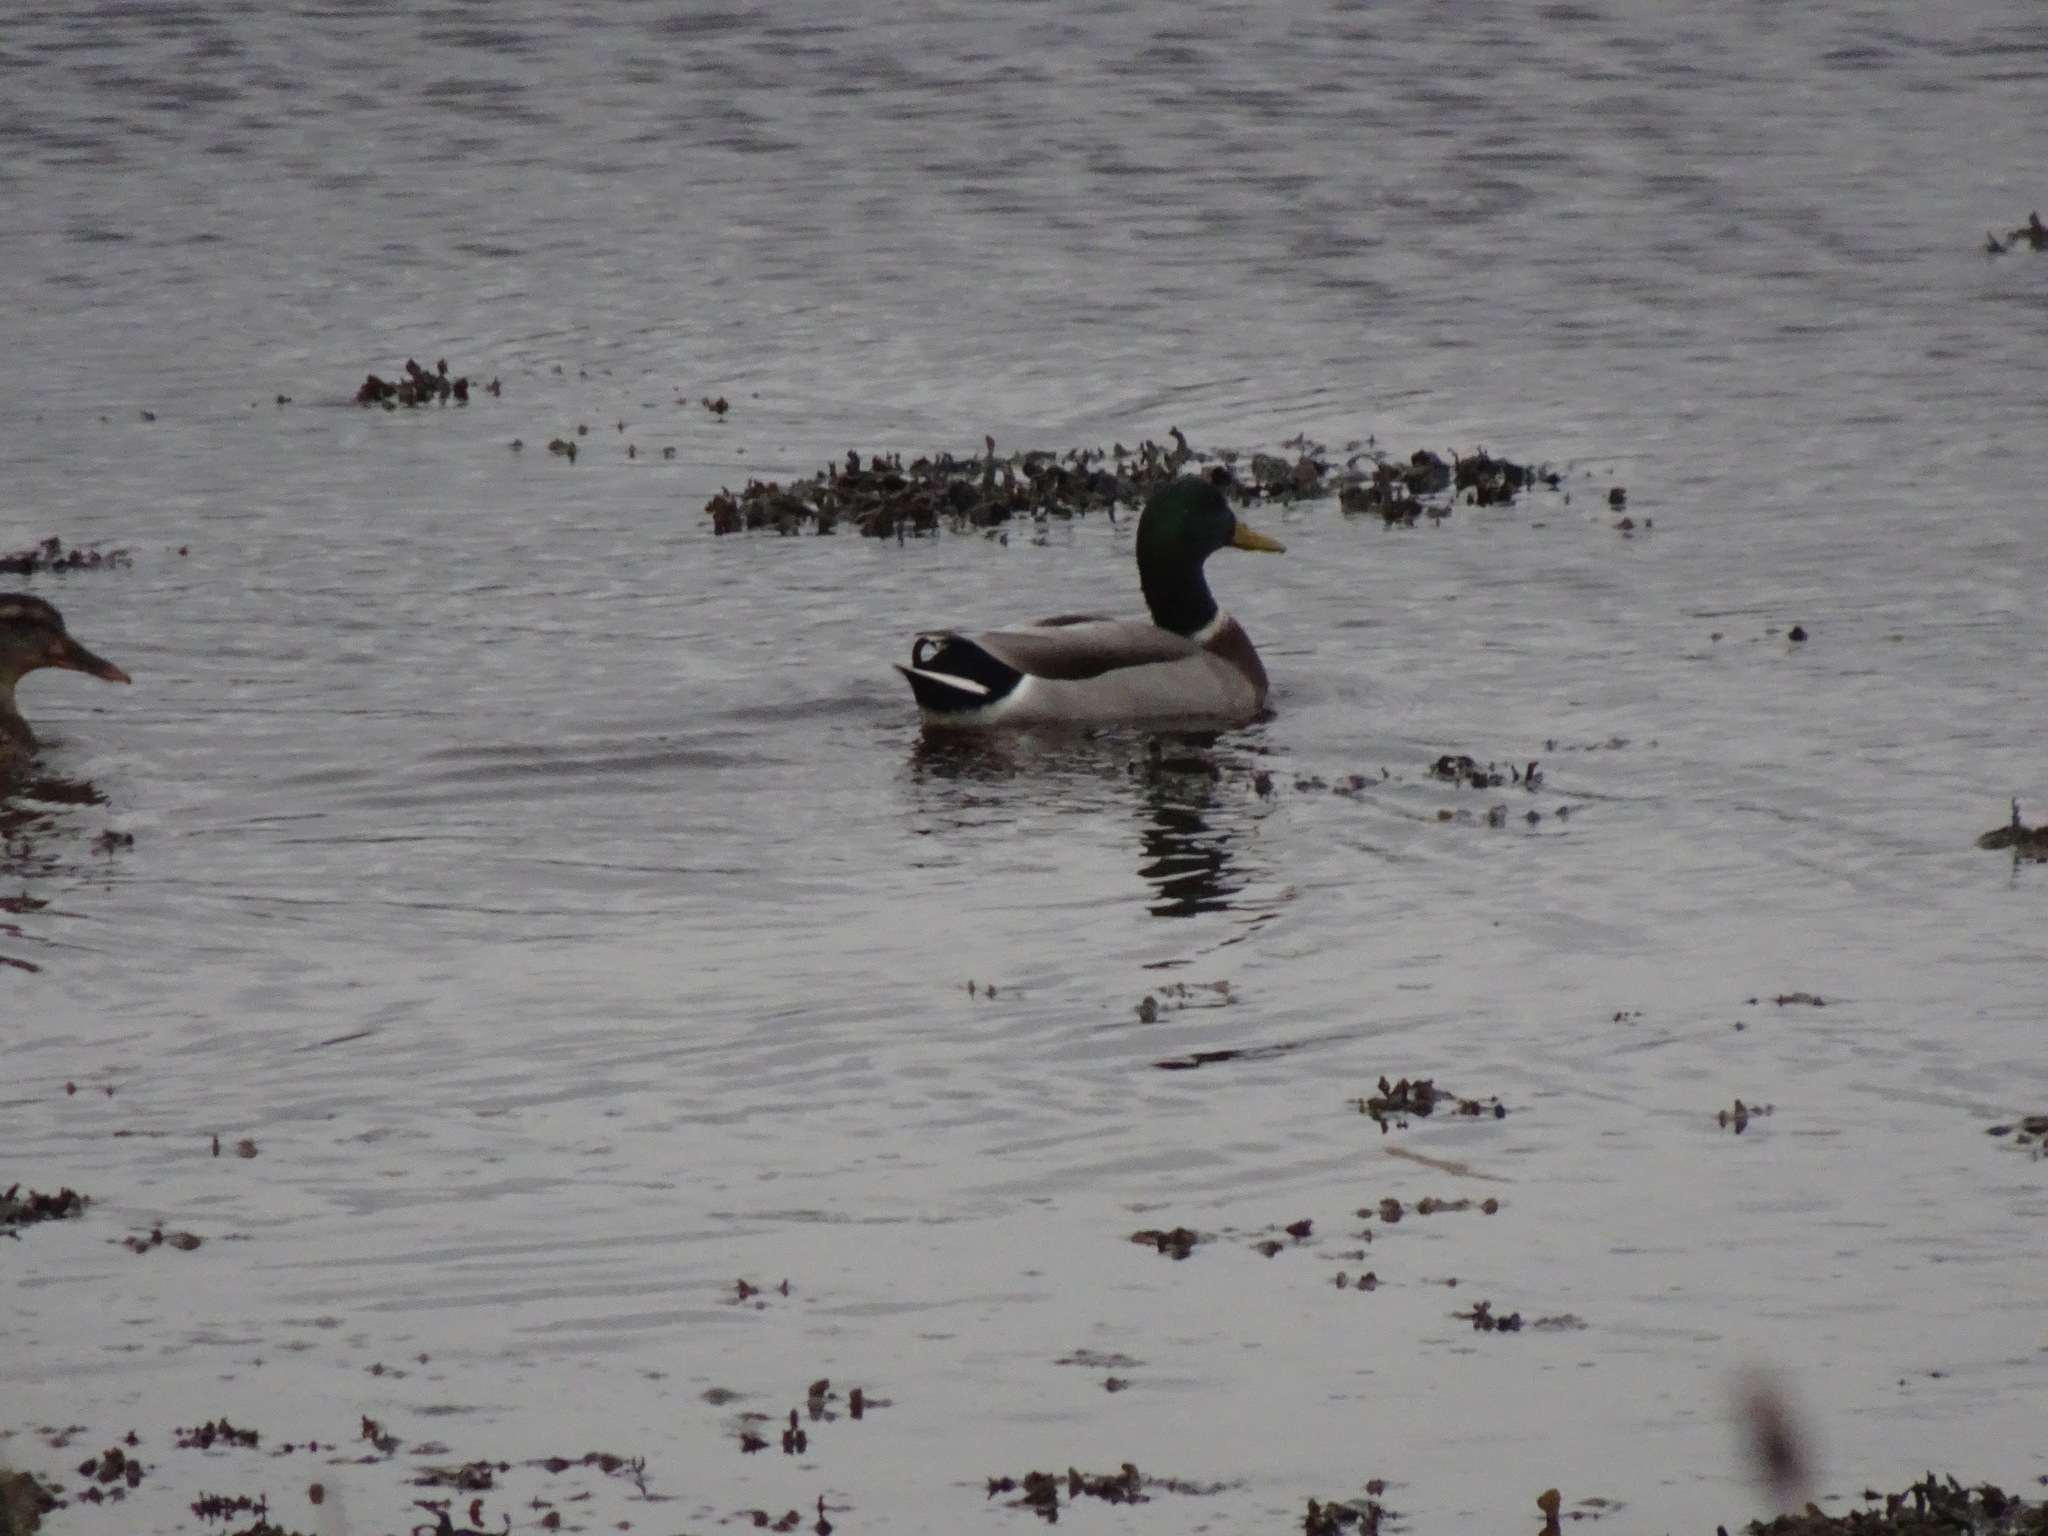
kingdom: Animalia
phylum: Chordata
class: Aves
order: Anseriformes
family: Anatidae
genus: Anas
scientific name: Anas platyrhynchos
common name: Mallard
